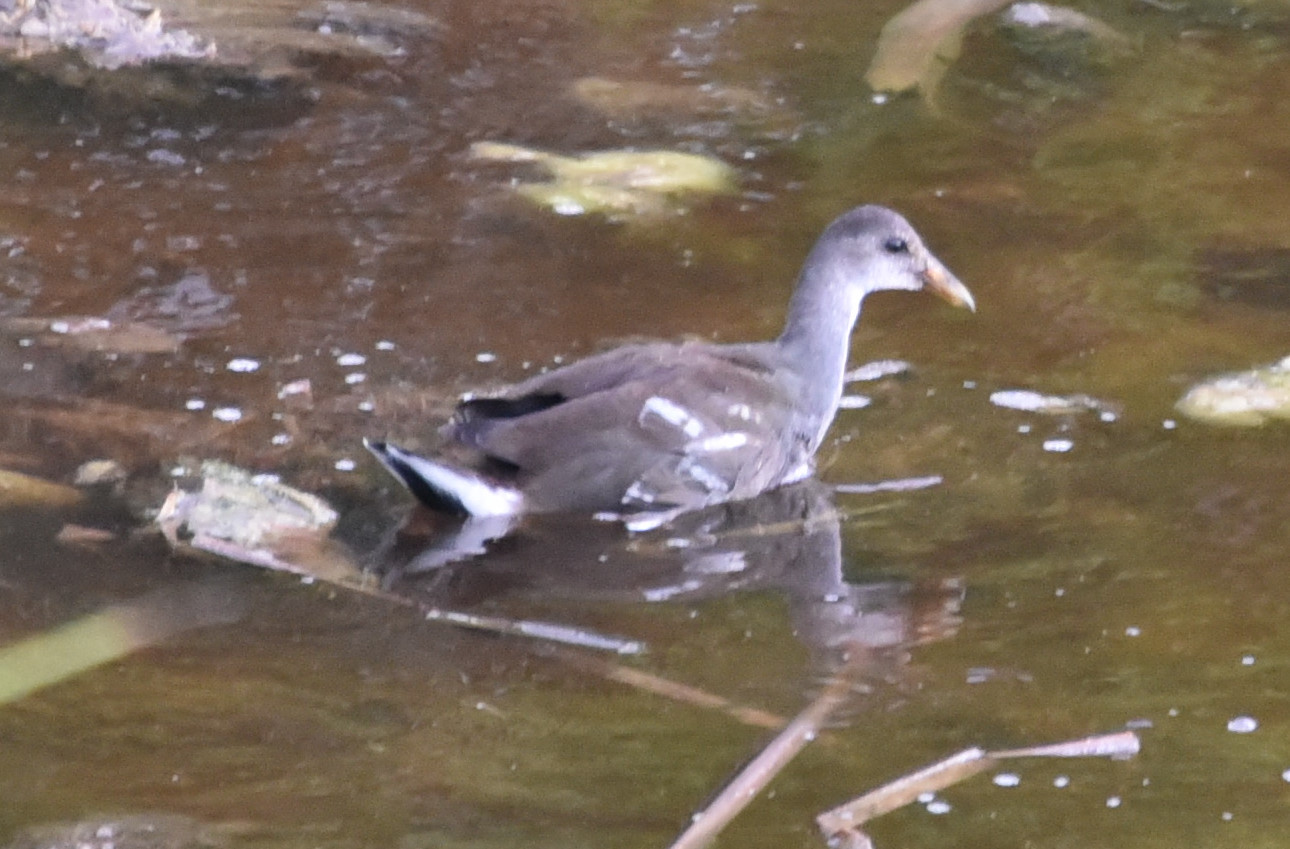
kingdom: Animalia
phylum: Chordata
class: Aves
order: Gruiformes
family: Rallidae
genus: Gallinula
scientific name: Gallinula chloropus
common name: Common moorhen
